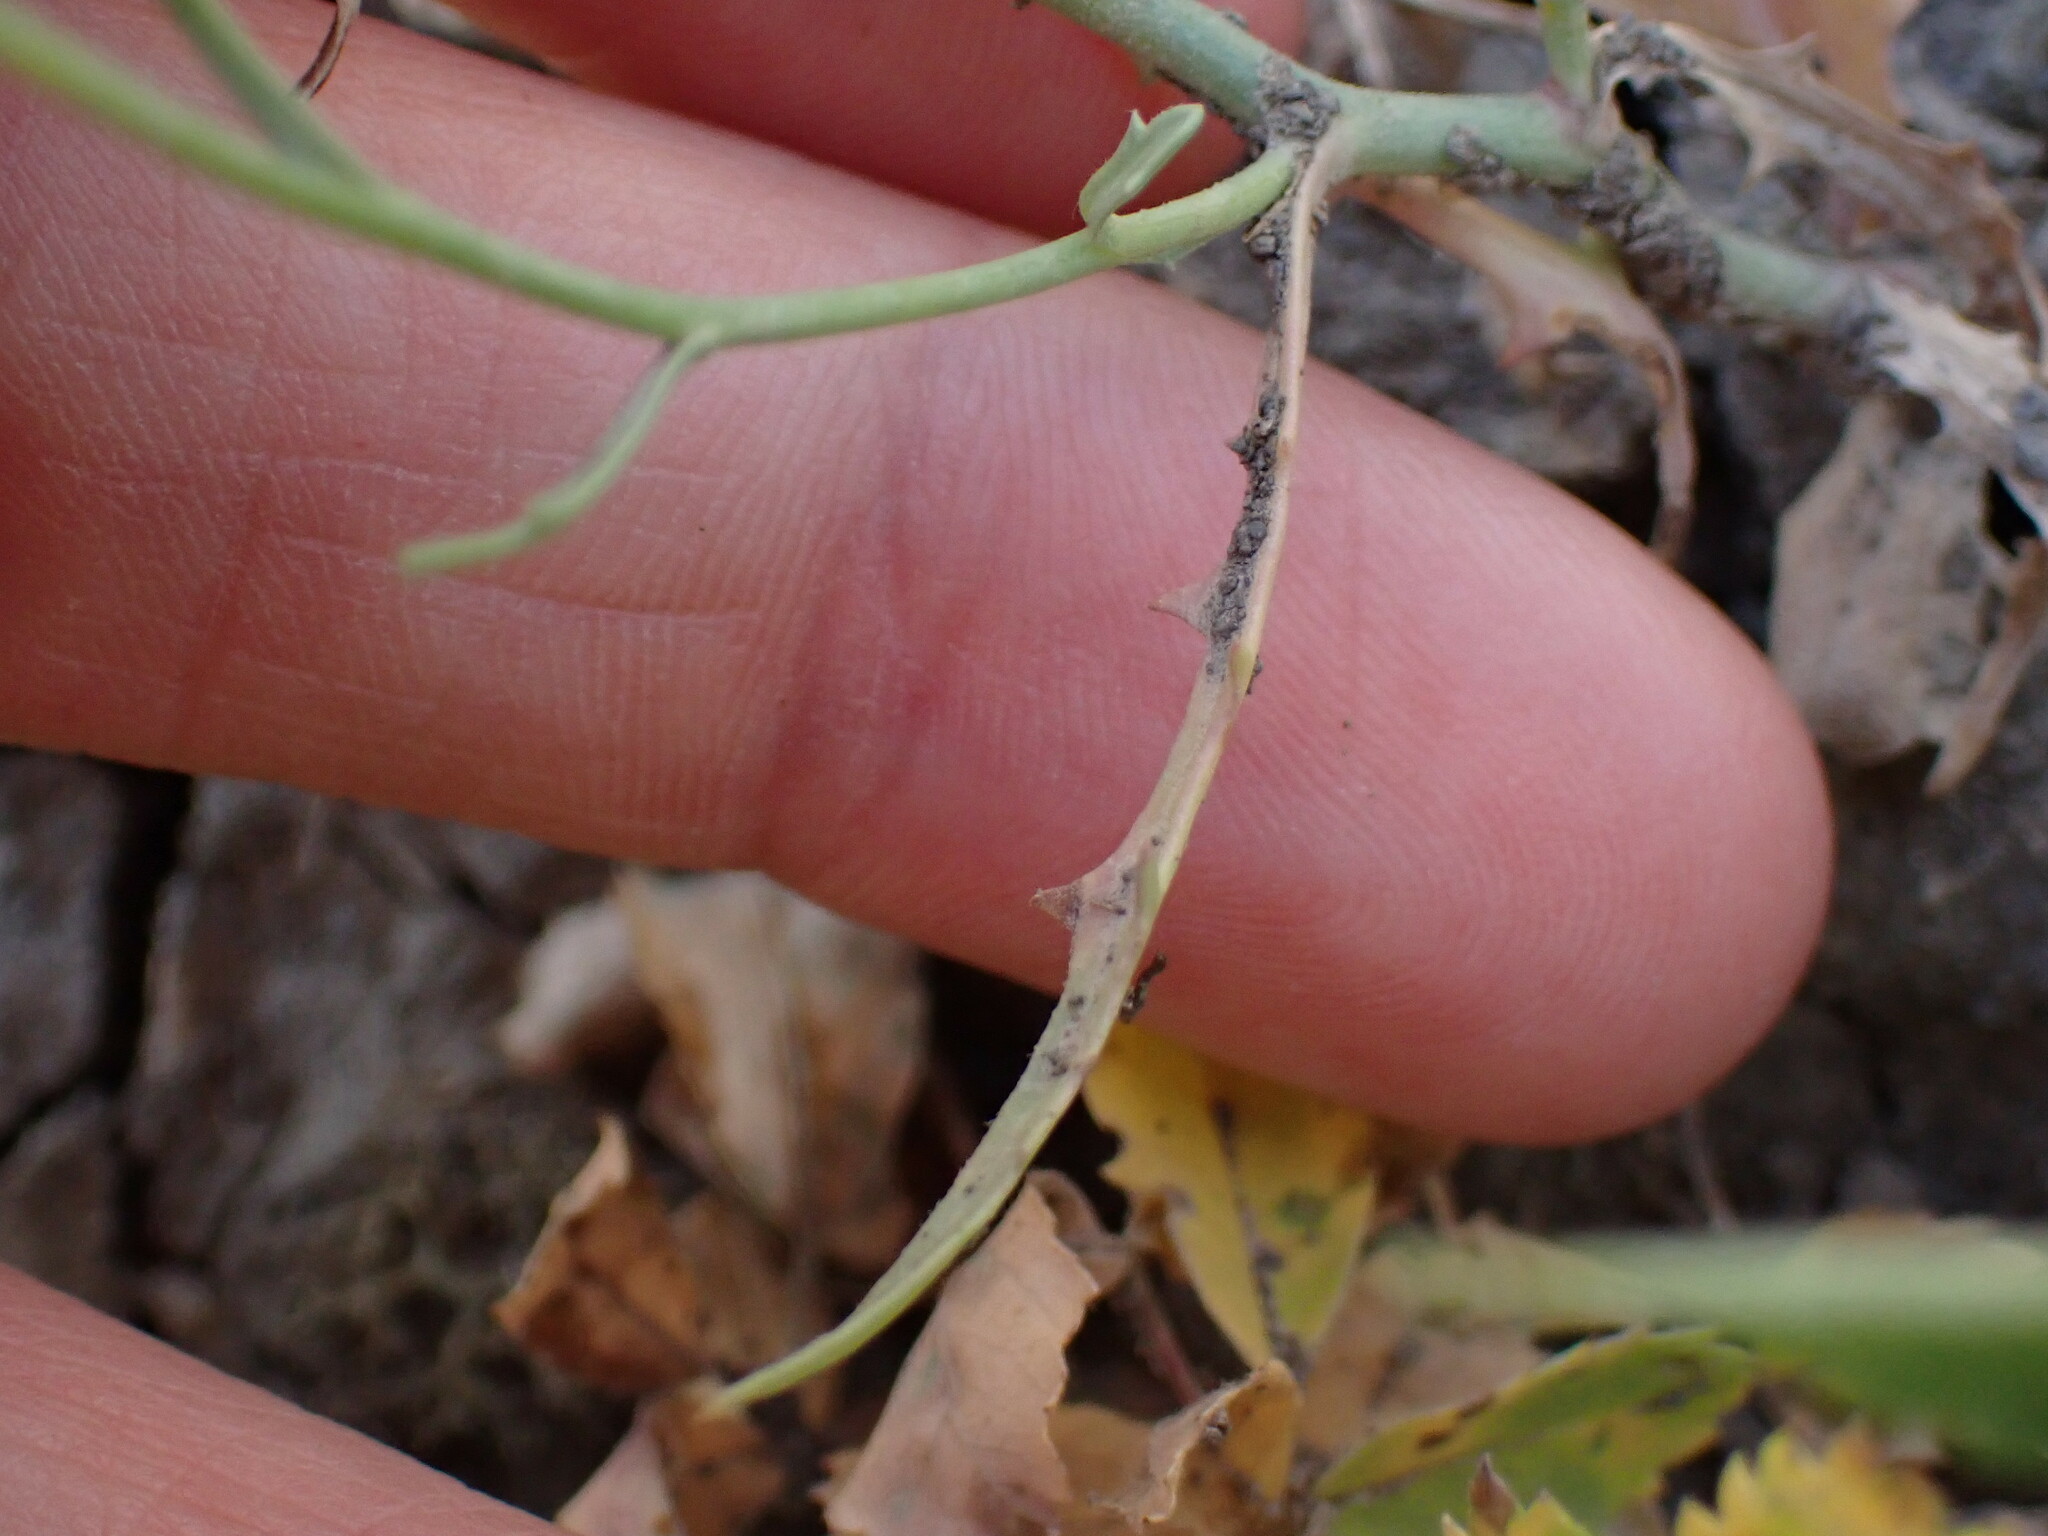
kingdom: Plantae
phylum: Tracheophyta
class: Magnoliopsida
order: Asterales
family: Asteraceae
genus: Stephanomeria
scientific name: Stephanomeria runcinata
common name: Desert wirelettuce
